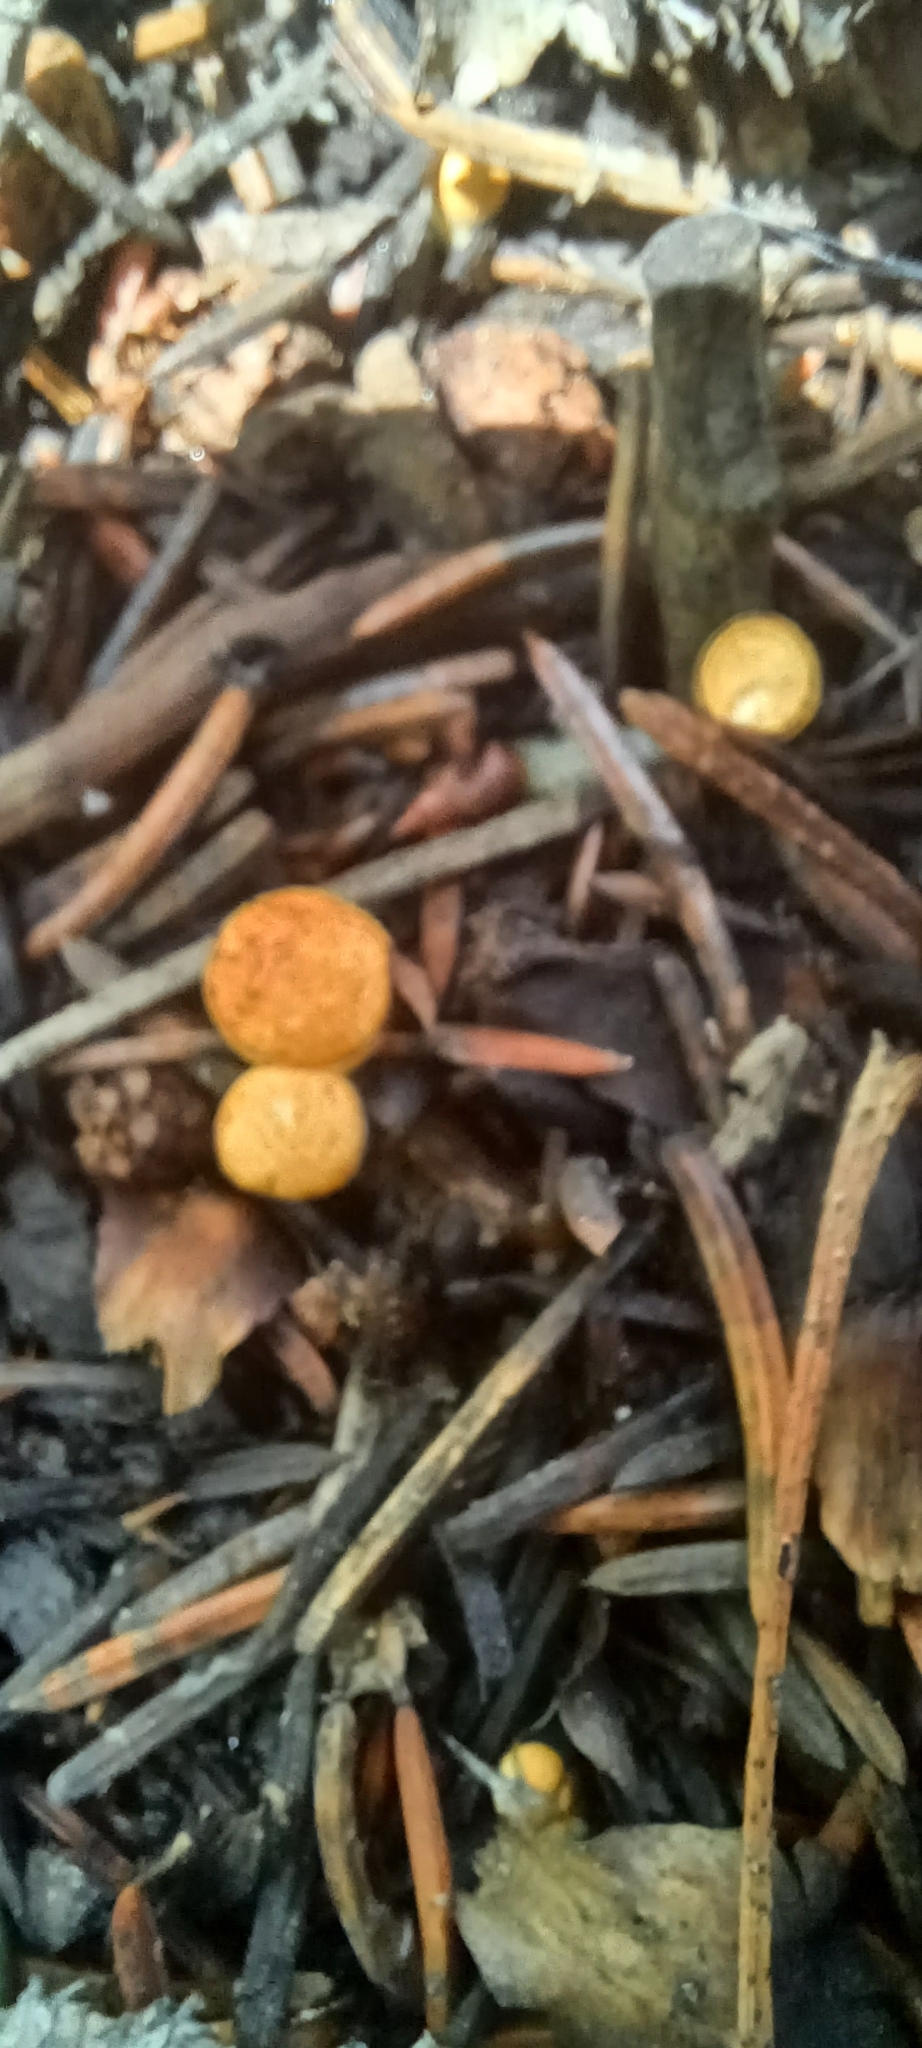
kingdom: Fungi
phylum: Basidiomycota
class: Agaricomycetes
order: Agaricales
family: Nidulariaceae
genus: Crucibulum
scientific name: Crucibulum cyathiforme
